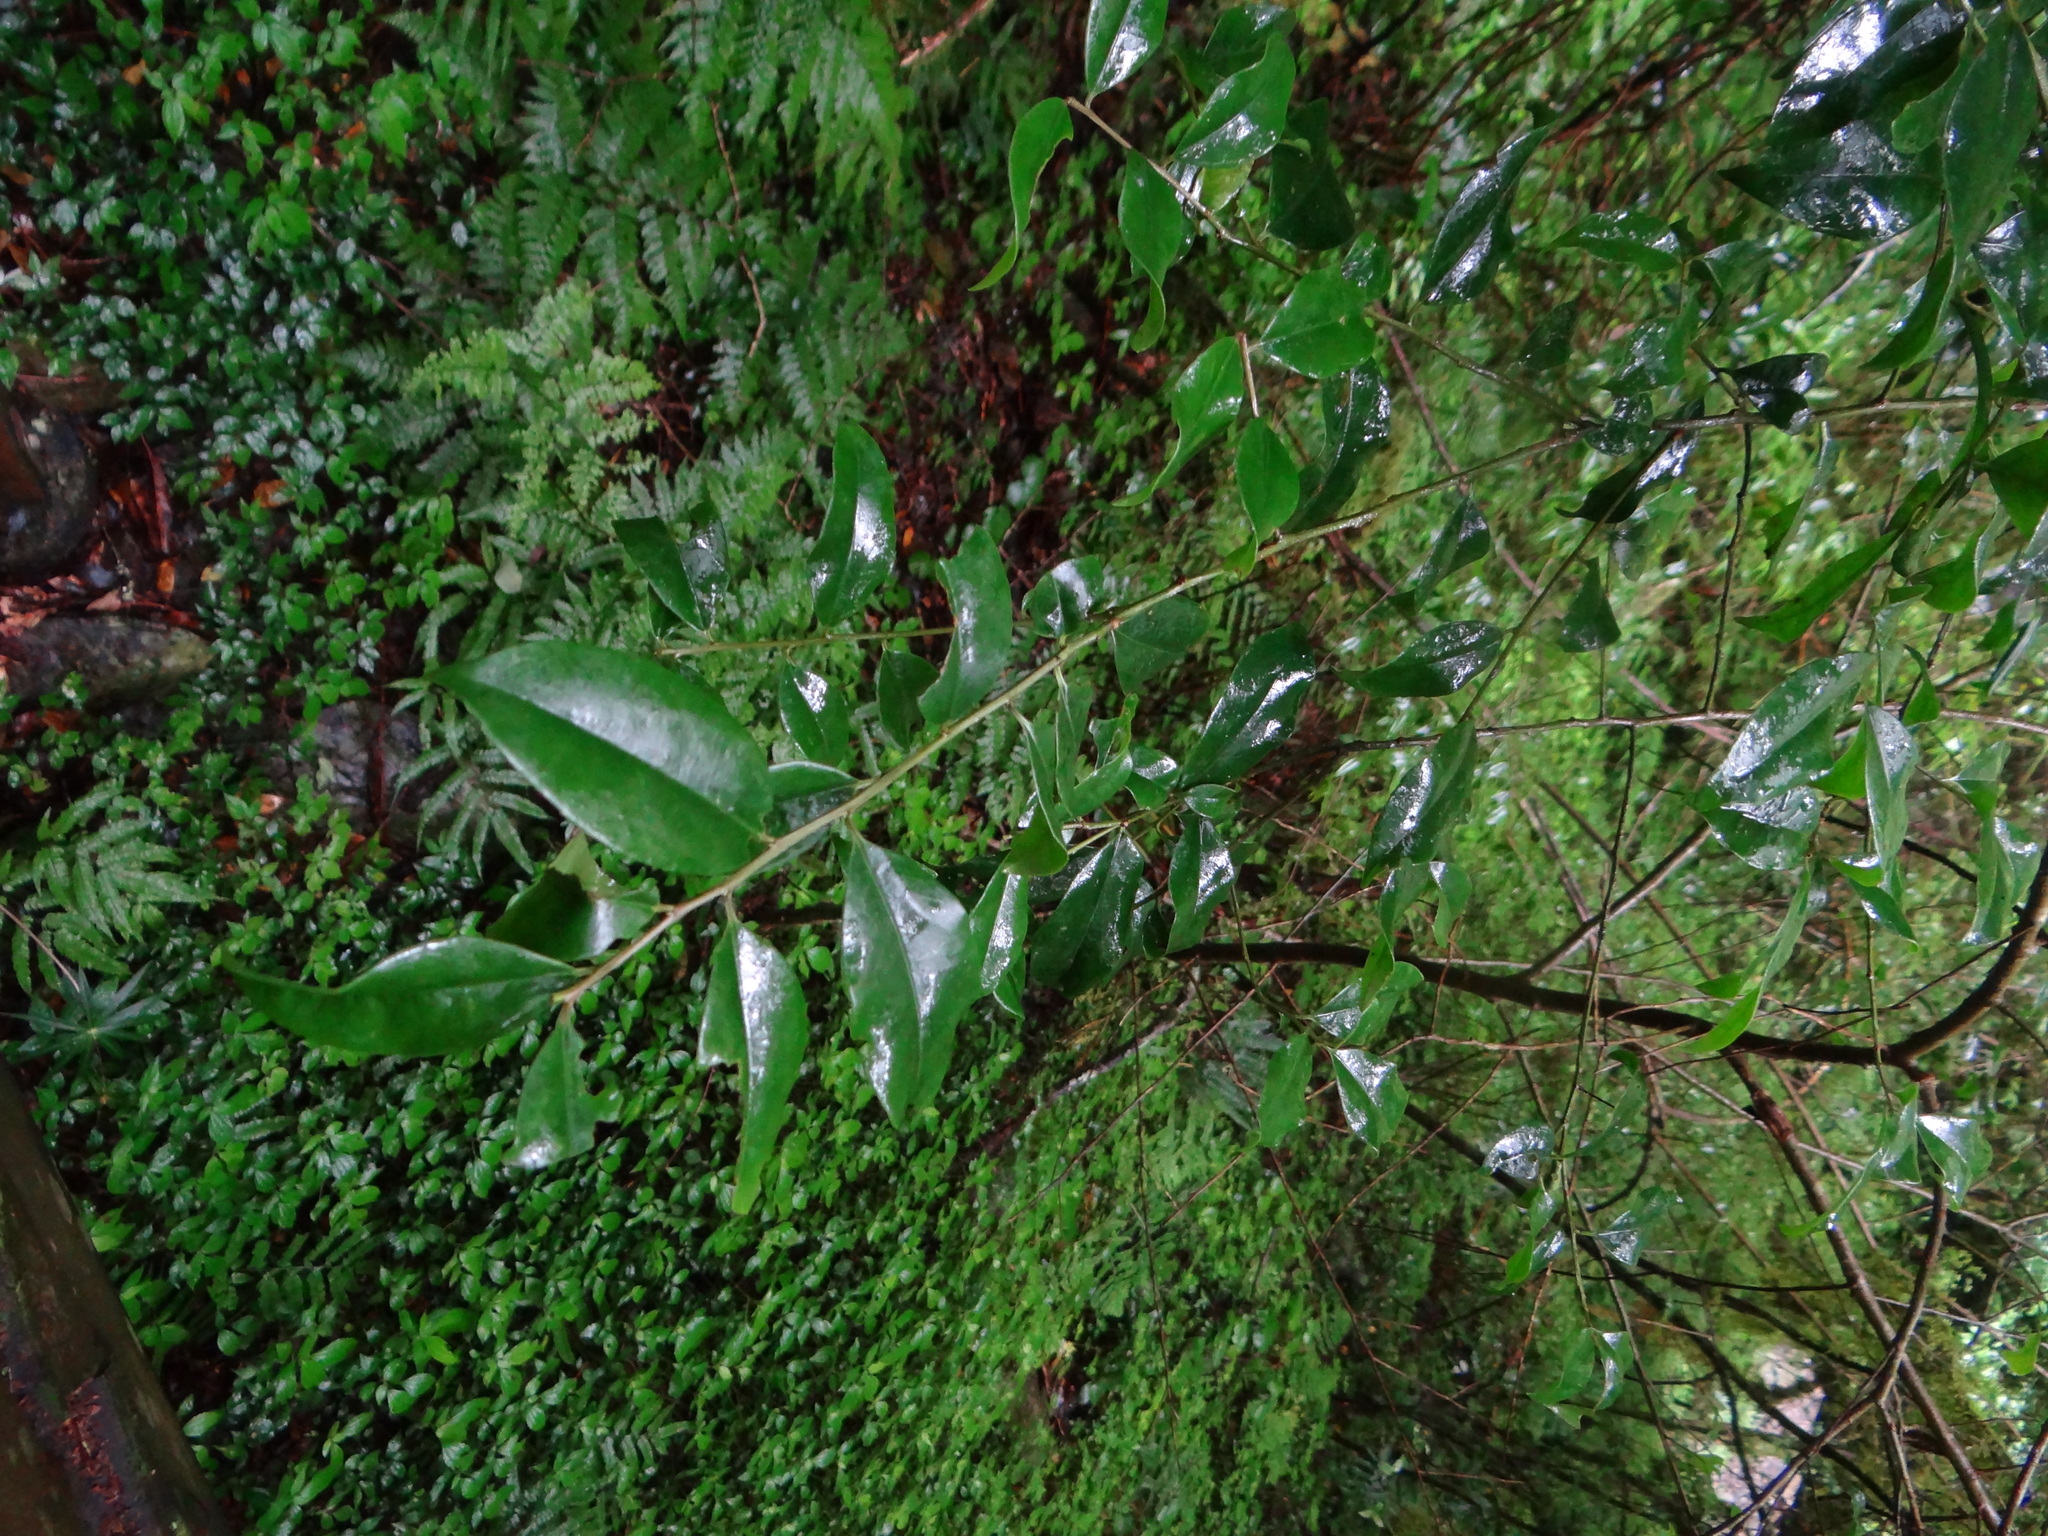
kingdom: Plantae
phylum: Tracheophyta
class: Magnoliopsida
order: Aquifoliales
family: Aquifoliaceae
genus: Ilex
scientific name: Ilex rotunda
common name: Kurogane holly
